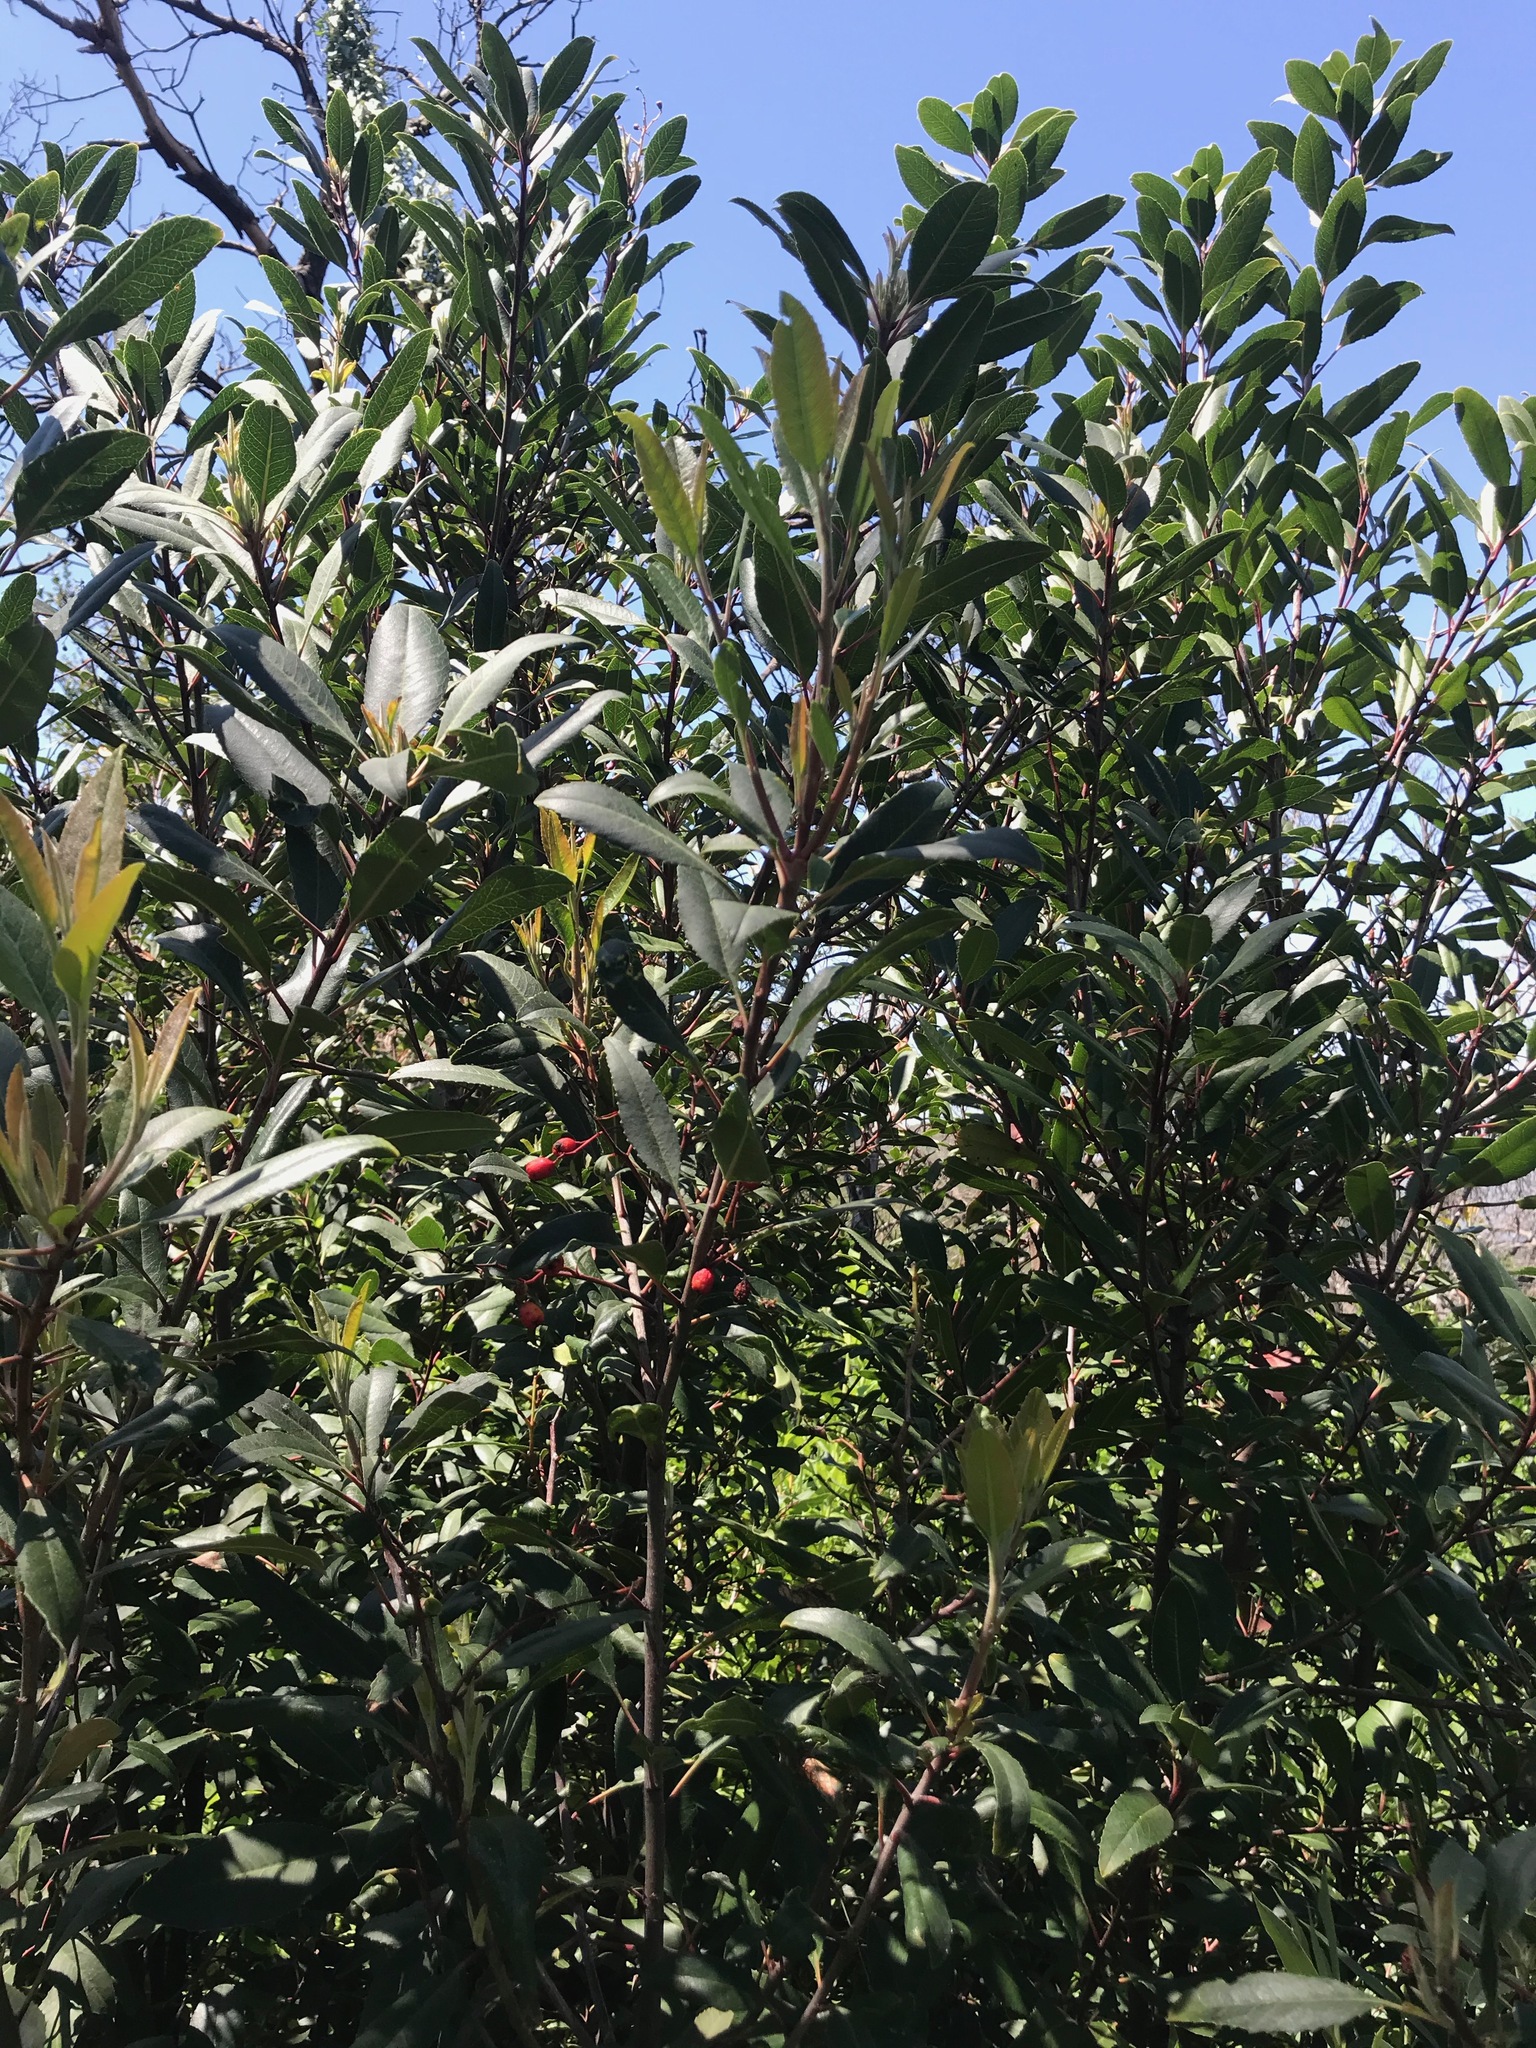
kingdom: Plantae
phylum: Tracheophyta
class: Magnoliopsida
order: Rosales
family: Rosaceae
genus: Heteromeles
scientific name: Heteromeles arbutifolia
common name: California-holly
